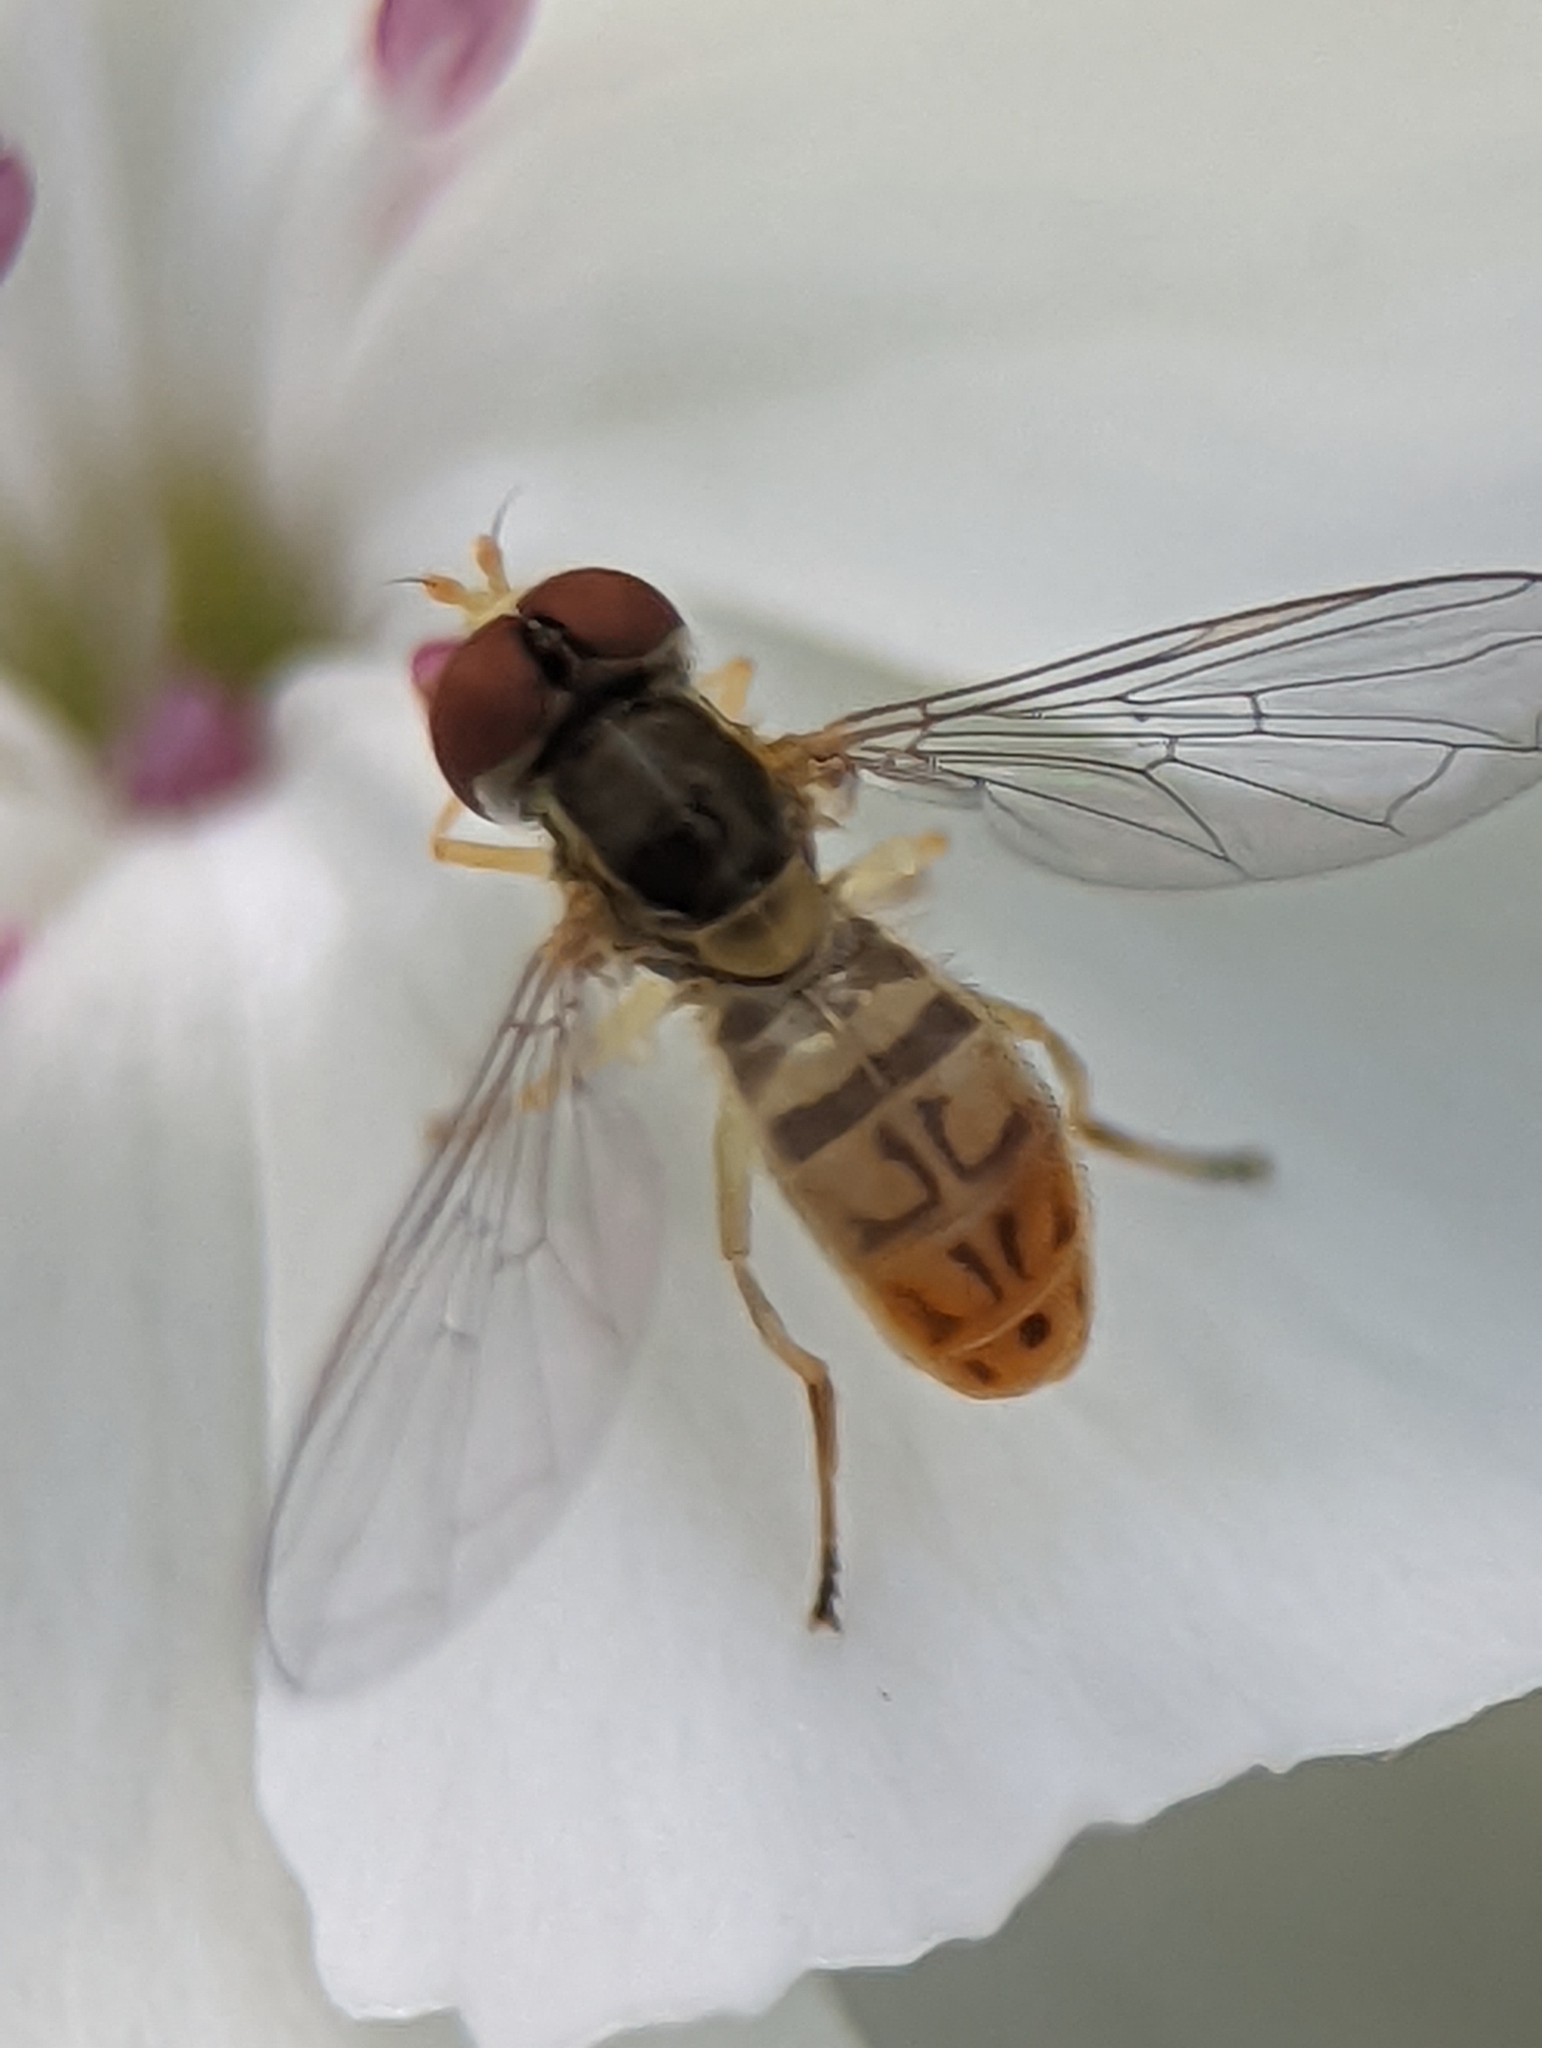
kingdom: Animalia
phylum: Arthropoda
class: Insecta
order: Diptera
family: Syrphidae
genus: Toxomerus
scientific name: Toxomerus marginatus
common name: Syrphid fly
